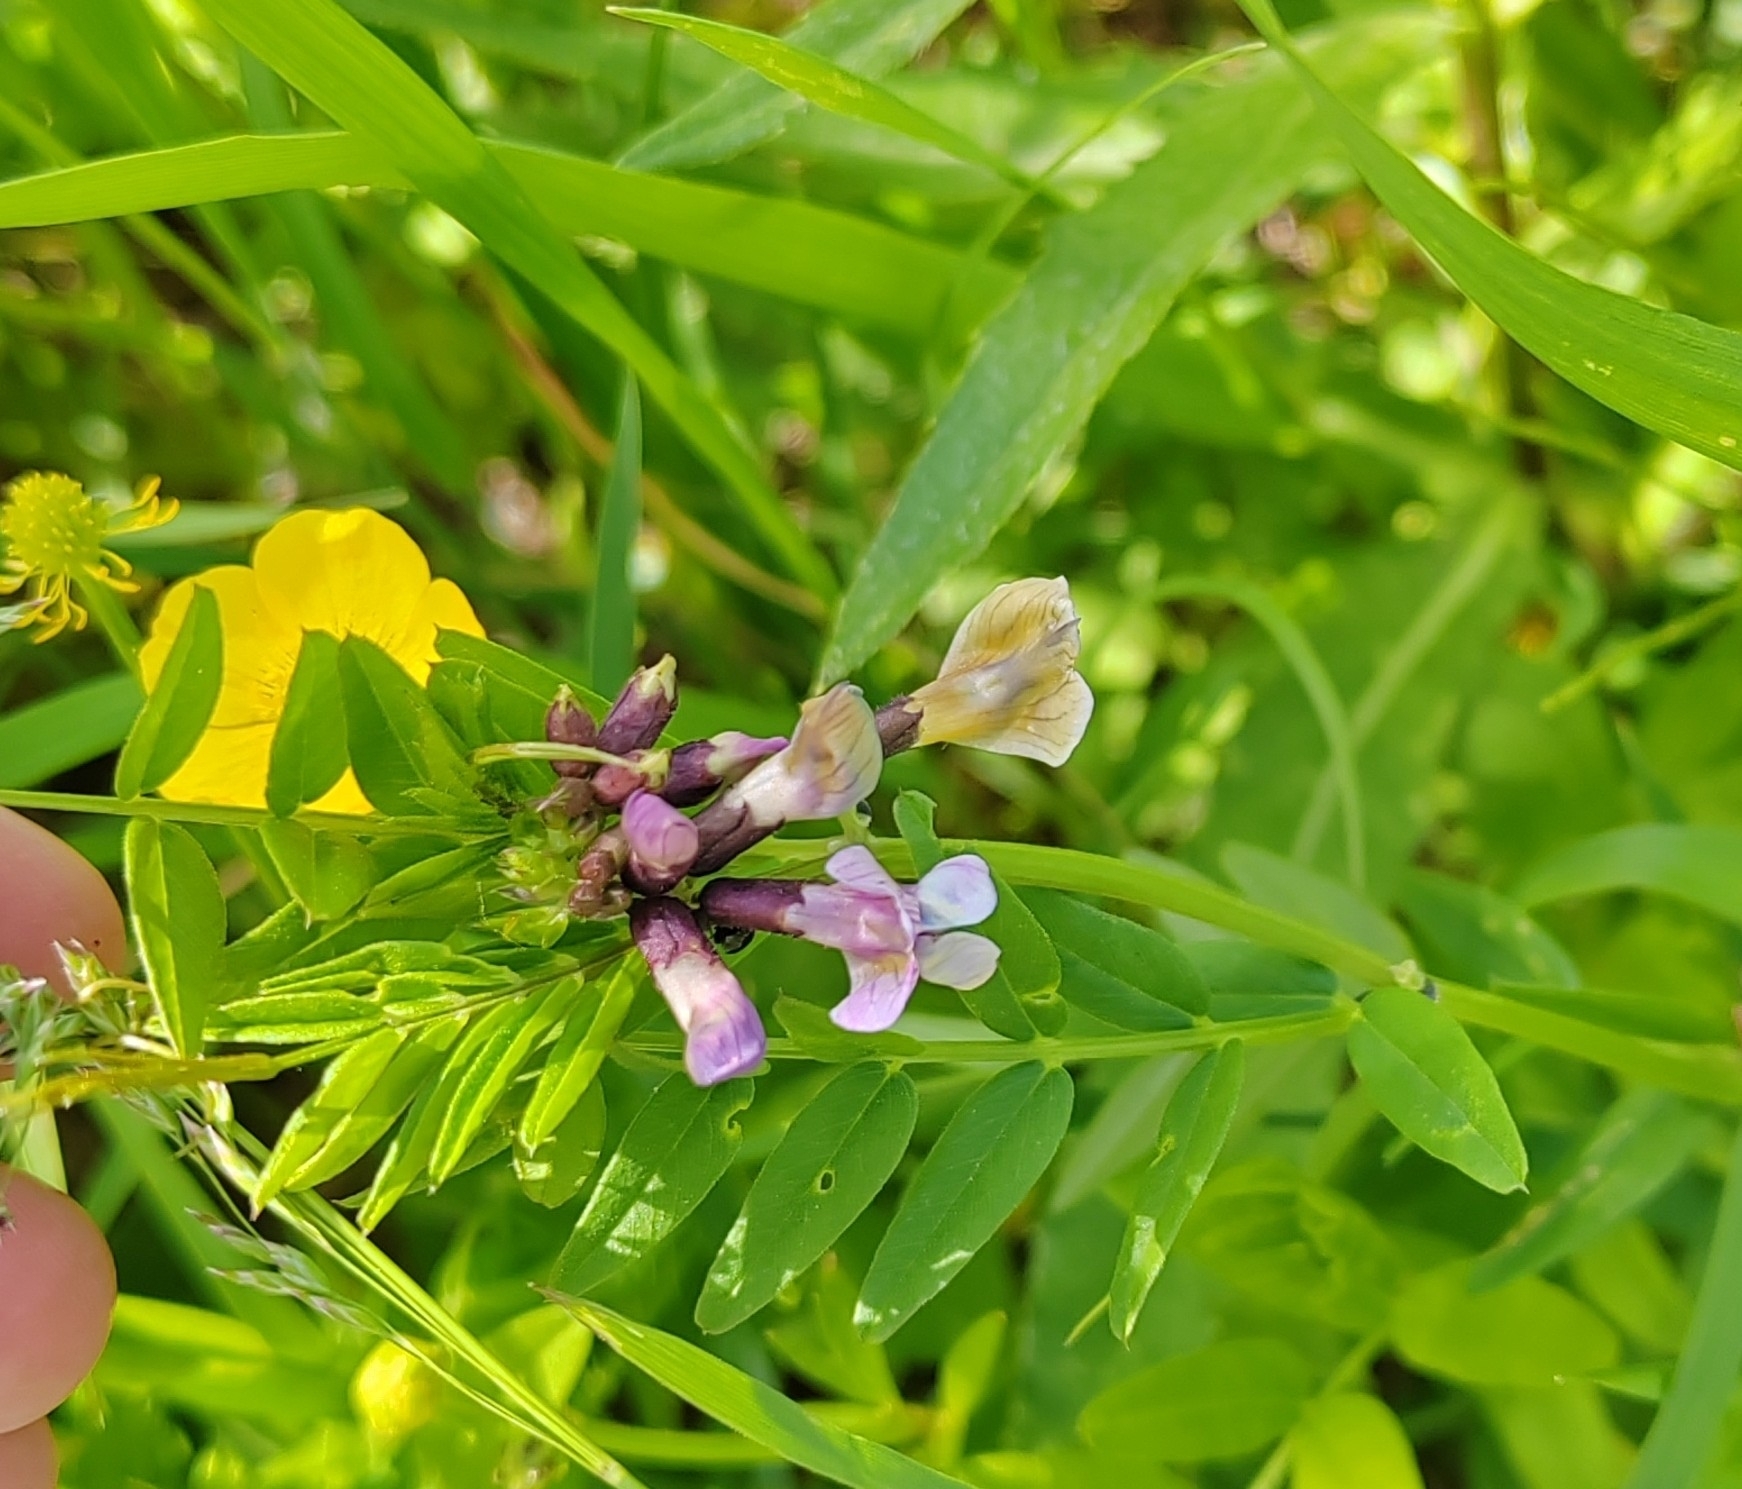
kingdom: Plantae
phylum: Tracheophyta
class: Magnoliopsida
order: Fabales
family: Fabaceae
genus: Vicia
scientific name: Vicia sepium
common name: Bush vetch
